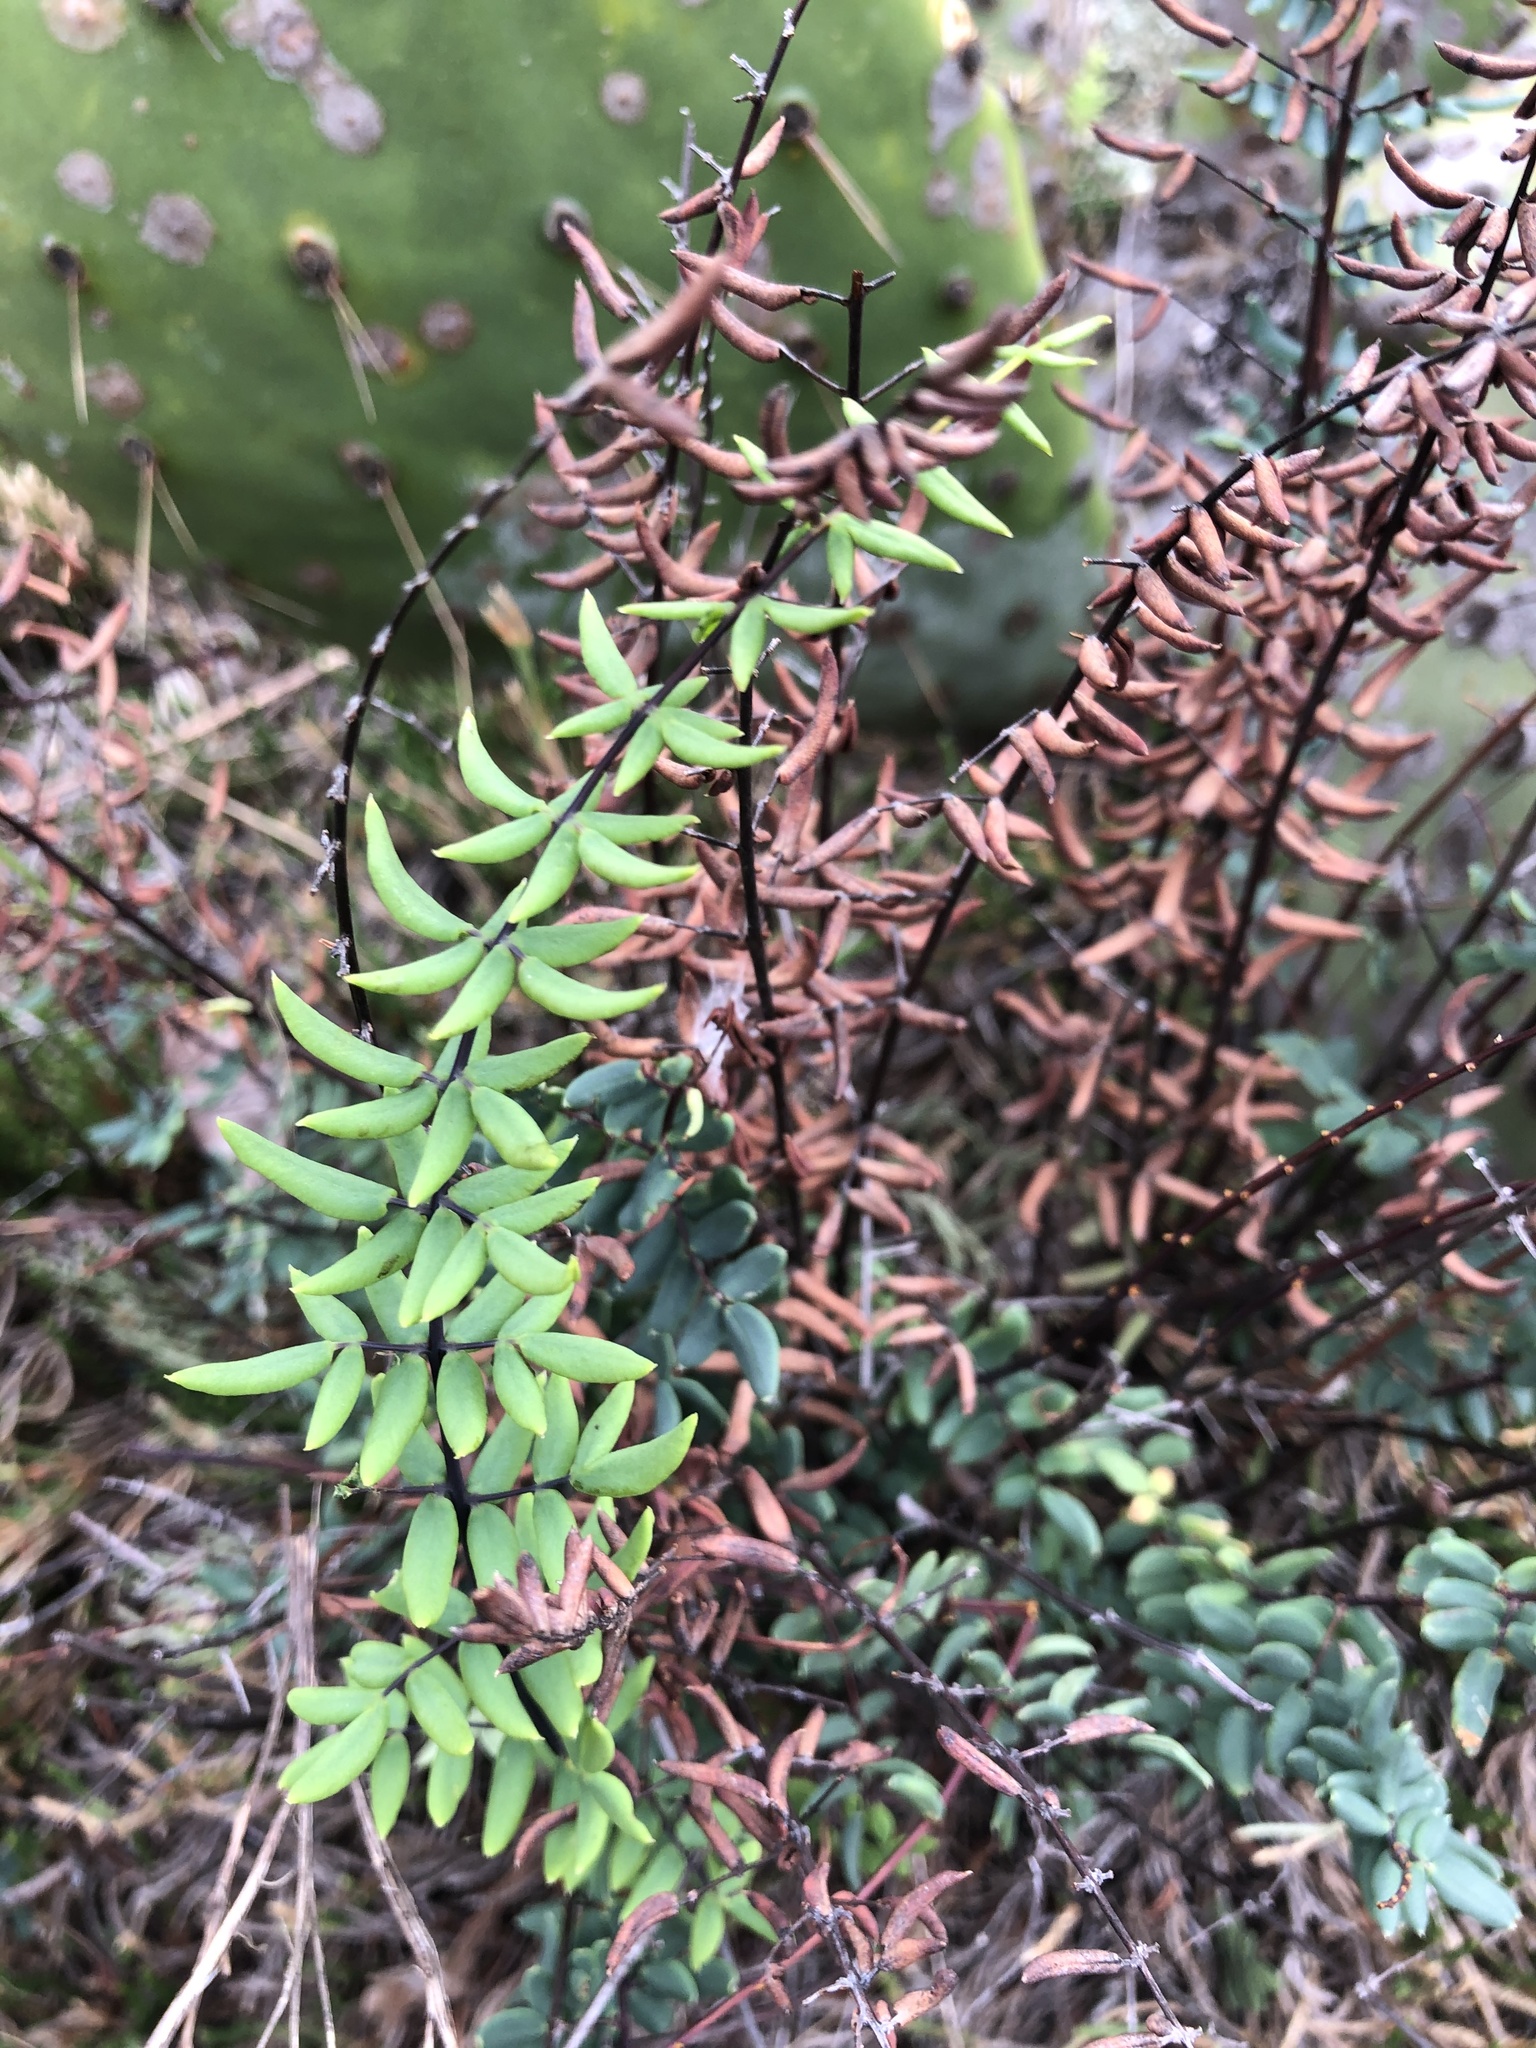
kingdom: Plantae
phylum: Tracheophyta
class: Polypodiopsida
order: Polypodiales
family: Pteridaceae
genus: Pellaea
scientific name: Pellaea wrightiana
